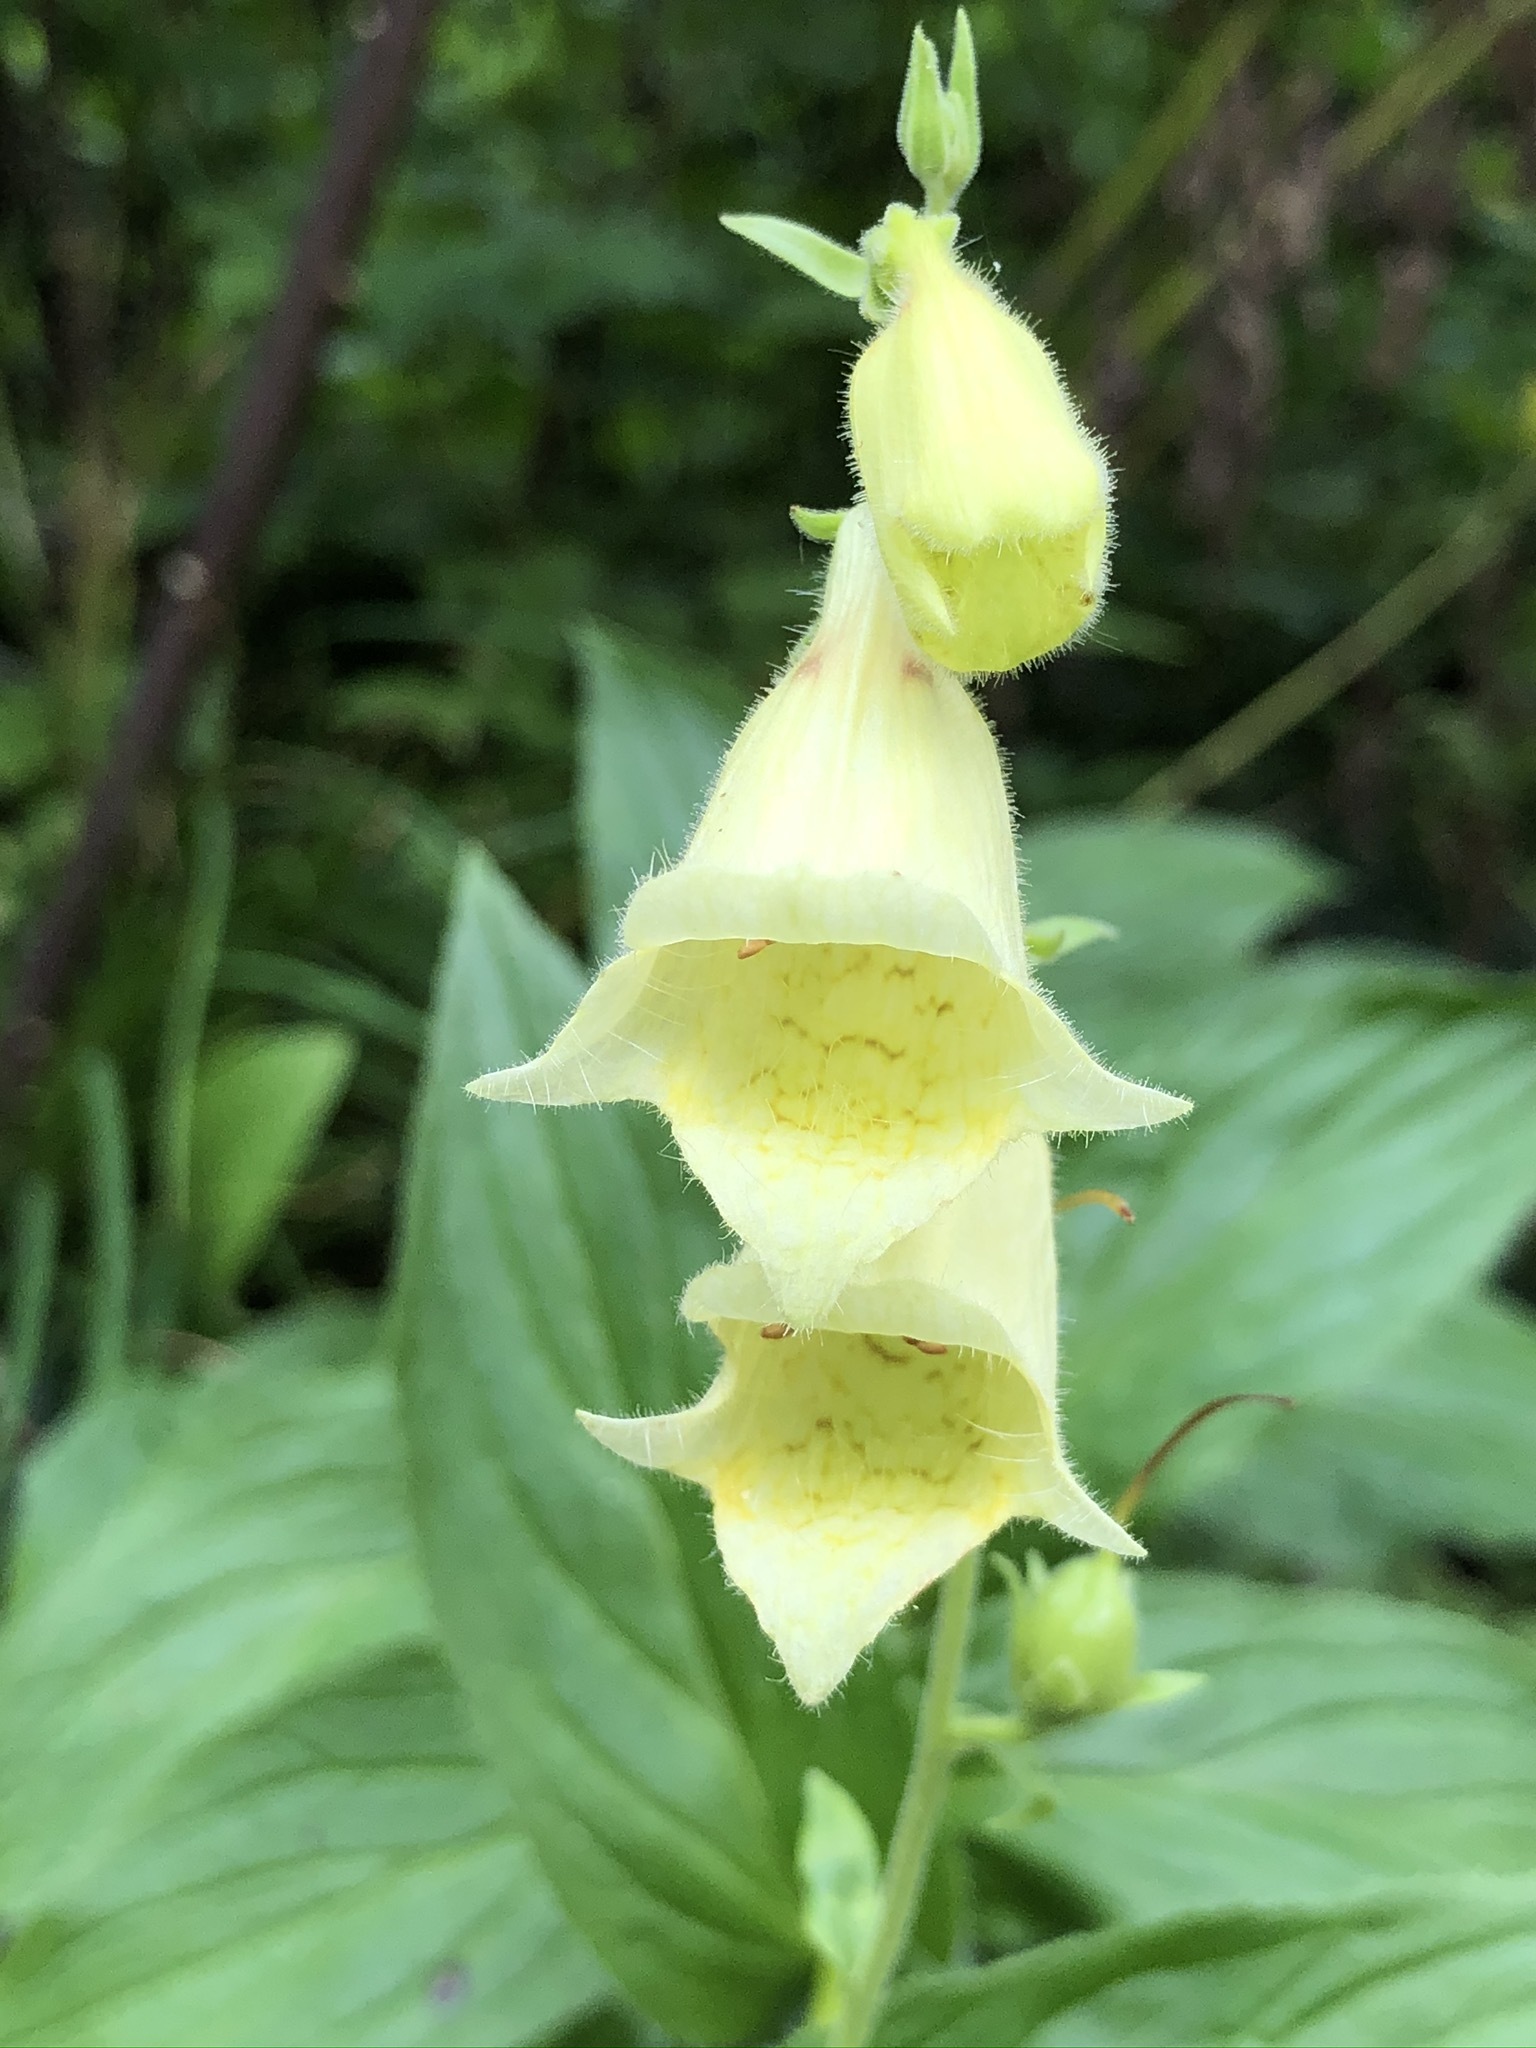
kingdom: Plantae
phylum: Tracheophyta
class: Magnoliopsida
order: Lamiales
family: Plantaginaceae
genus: Digitalis
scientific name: Digitalis grandiflora
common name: Yellow foxglove
